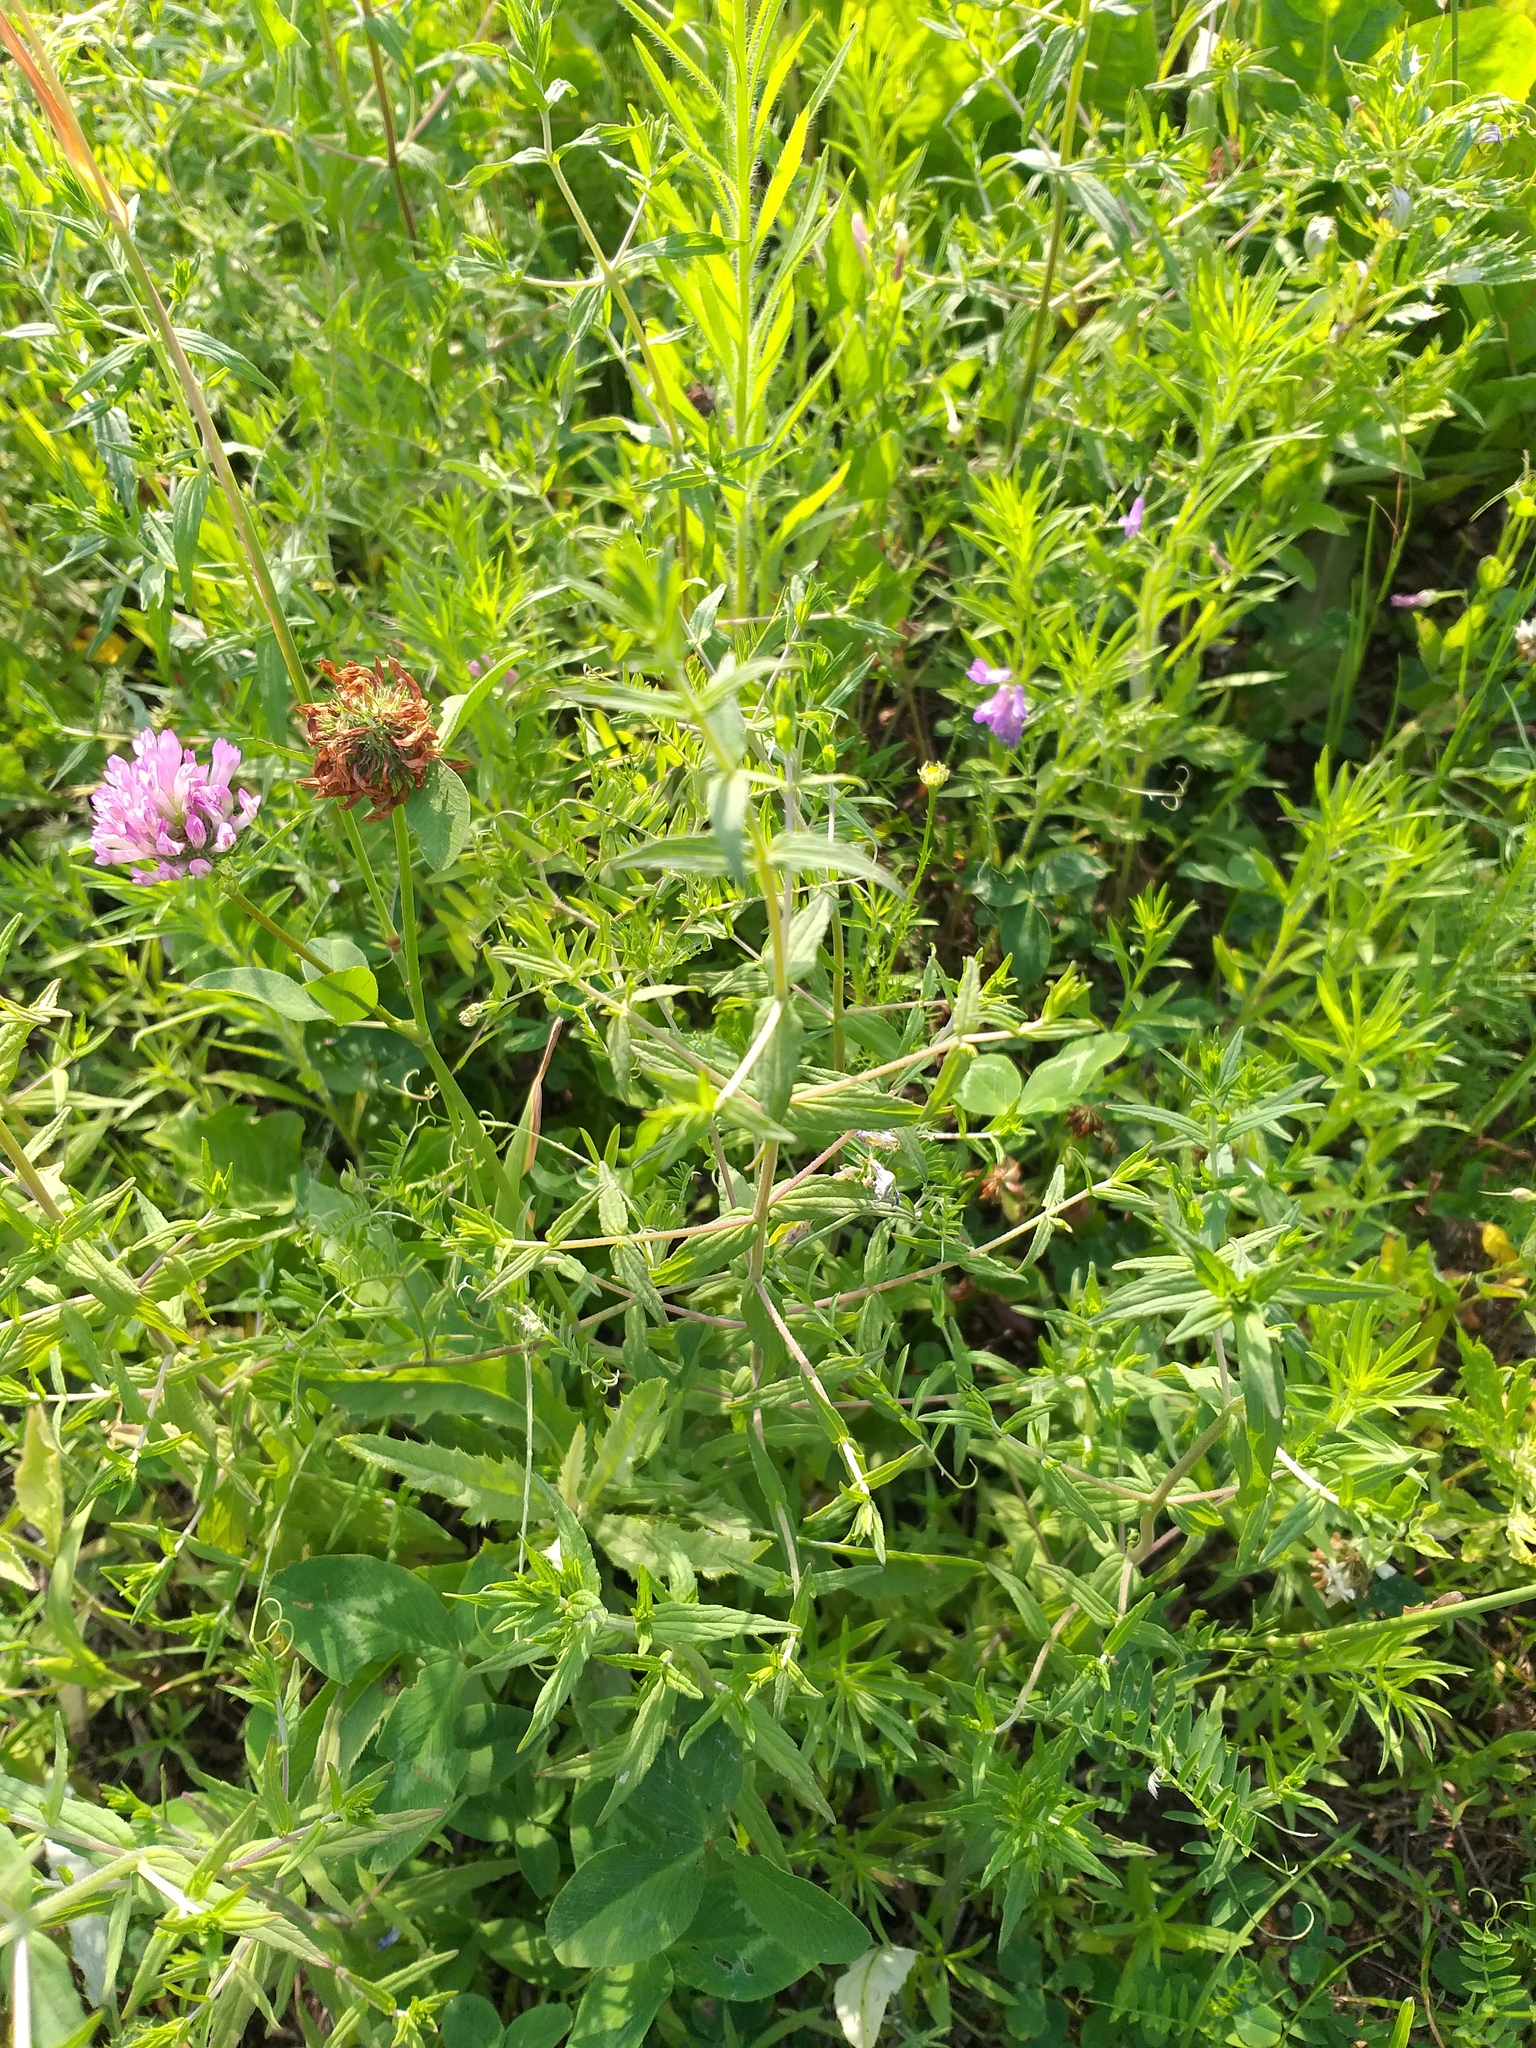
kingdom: Plantae
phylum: Tracheophyta
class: Magnoliopsida
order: Lamiales
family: Orobanchaceae
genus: Odontites
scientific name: Odontites vulgaris
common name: Broomrape
